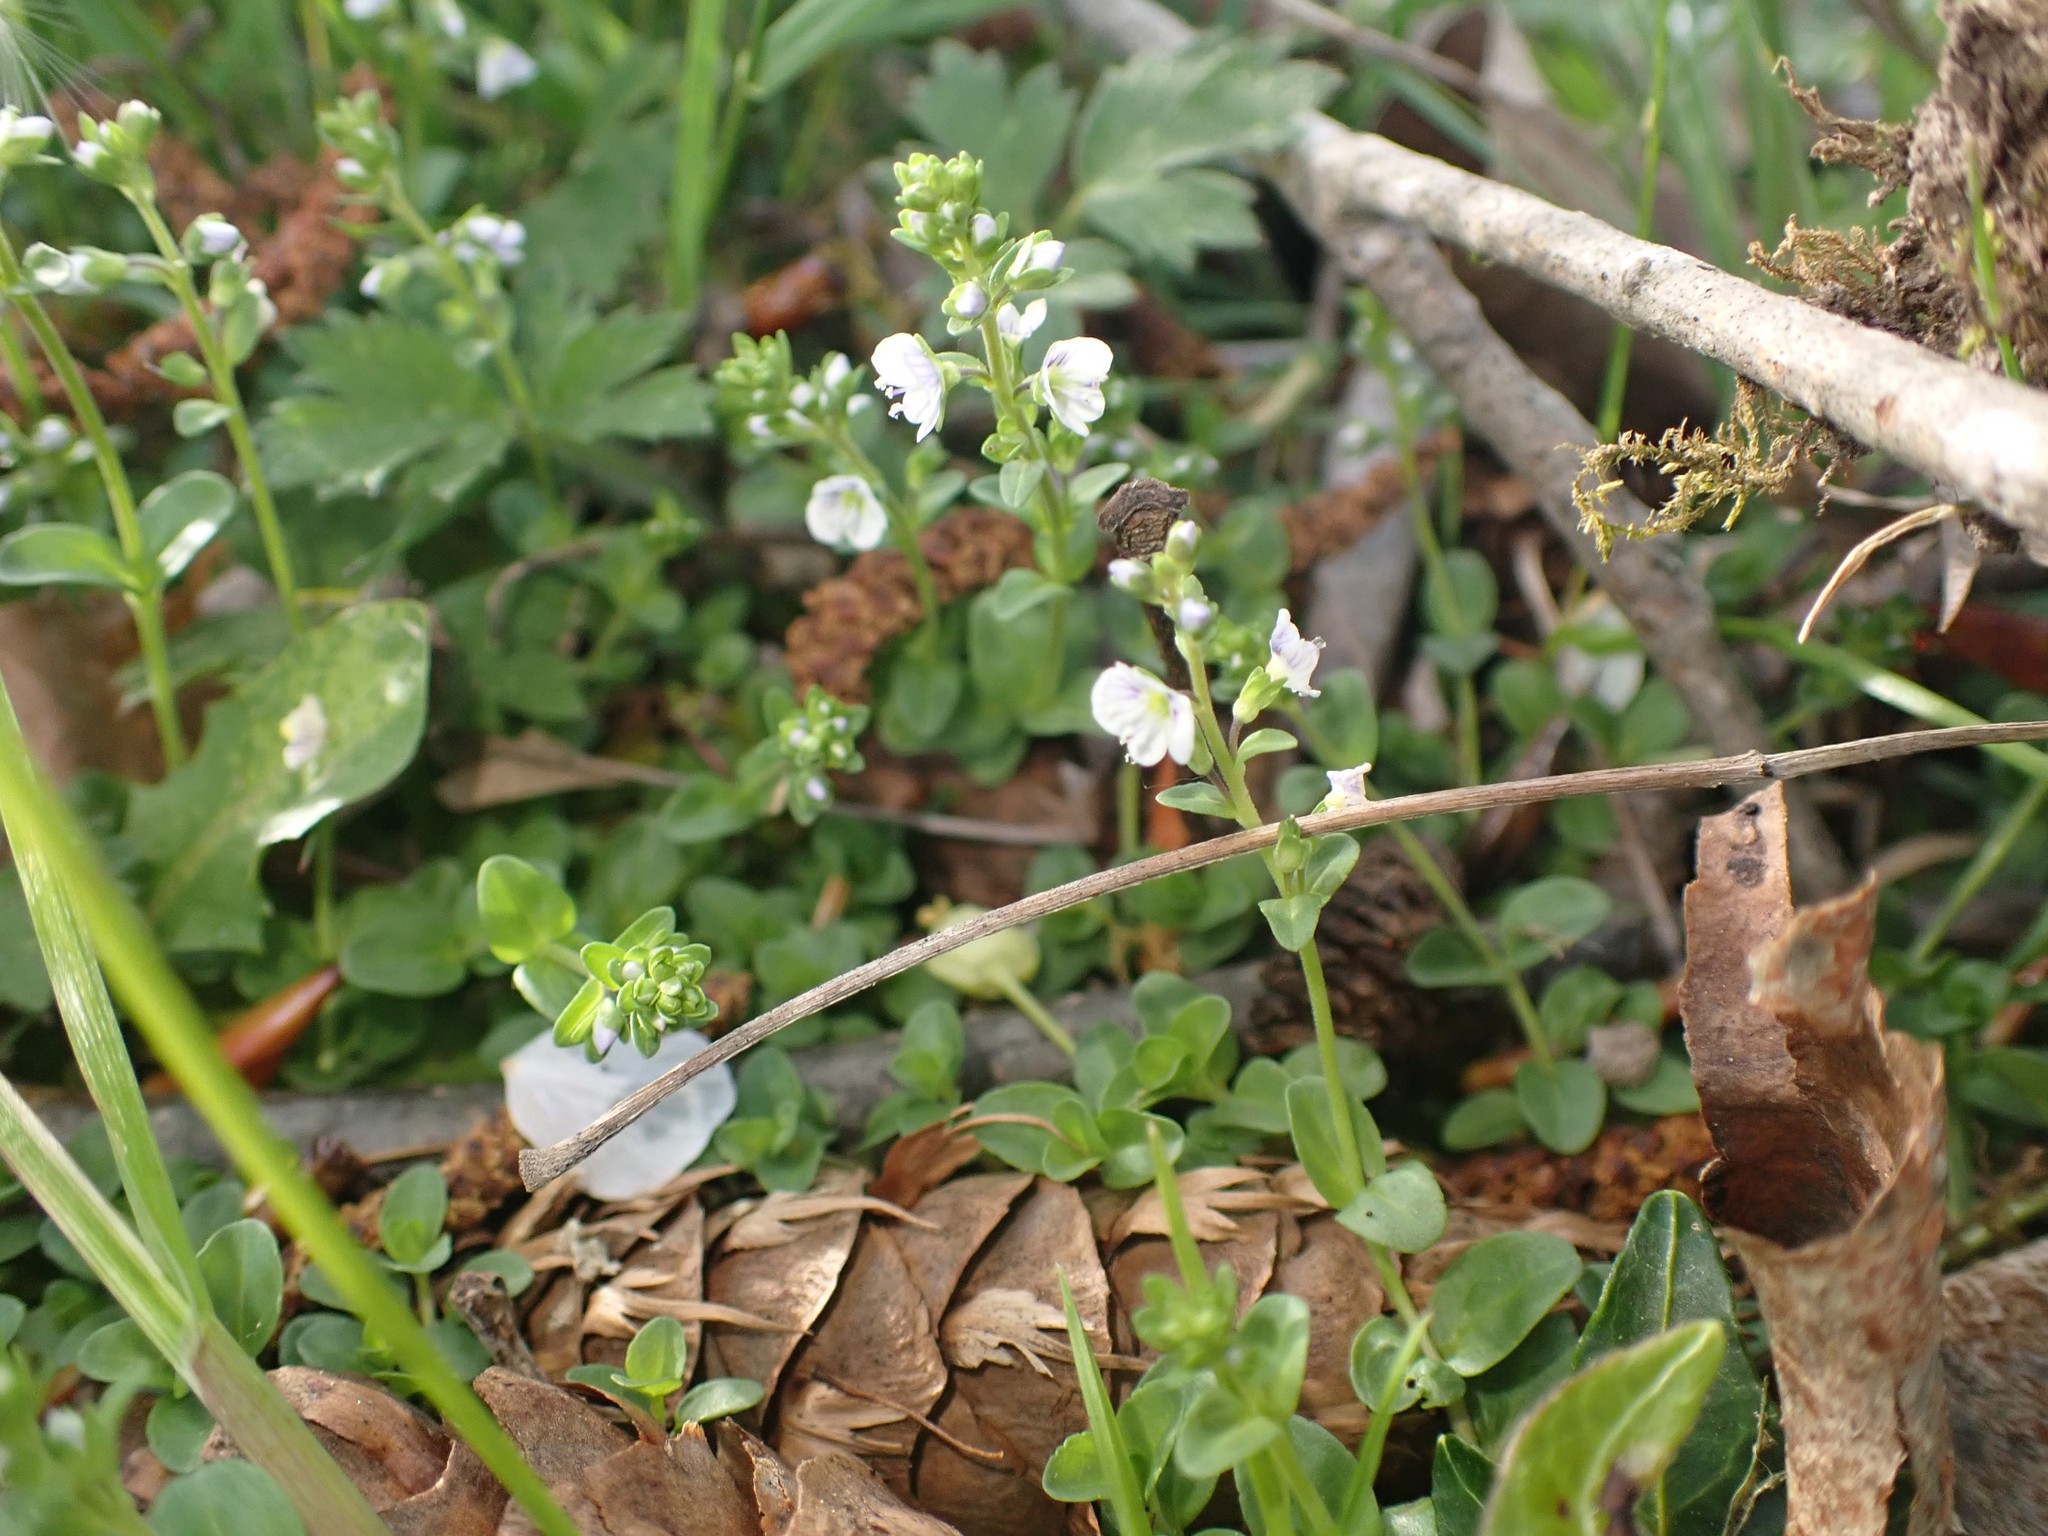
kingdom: Plantae
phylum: Tracheophyta
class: Magnoliopsida
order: Lamiales
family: Plantaginaceae
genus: Veronica
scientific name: Veronica serpyllifolia
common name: Thyme-leaved speedwell
